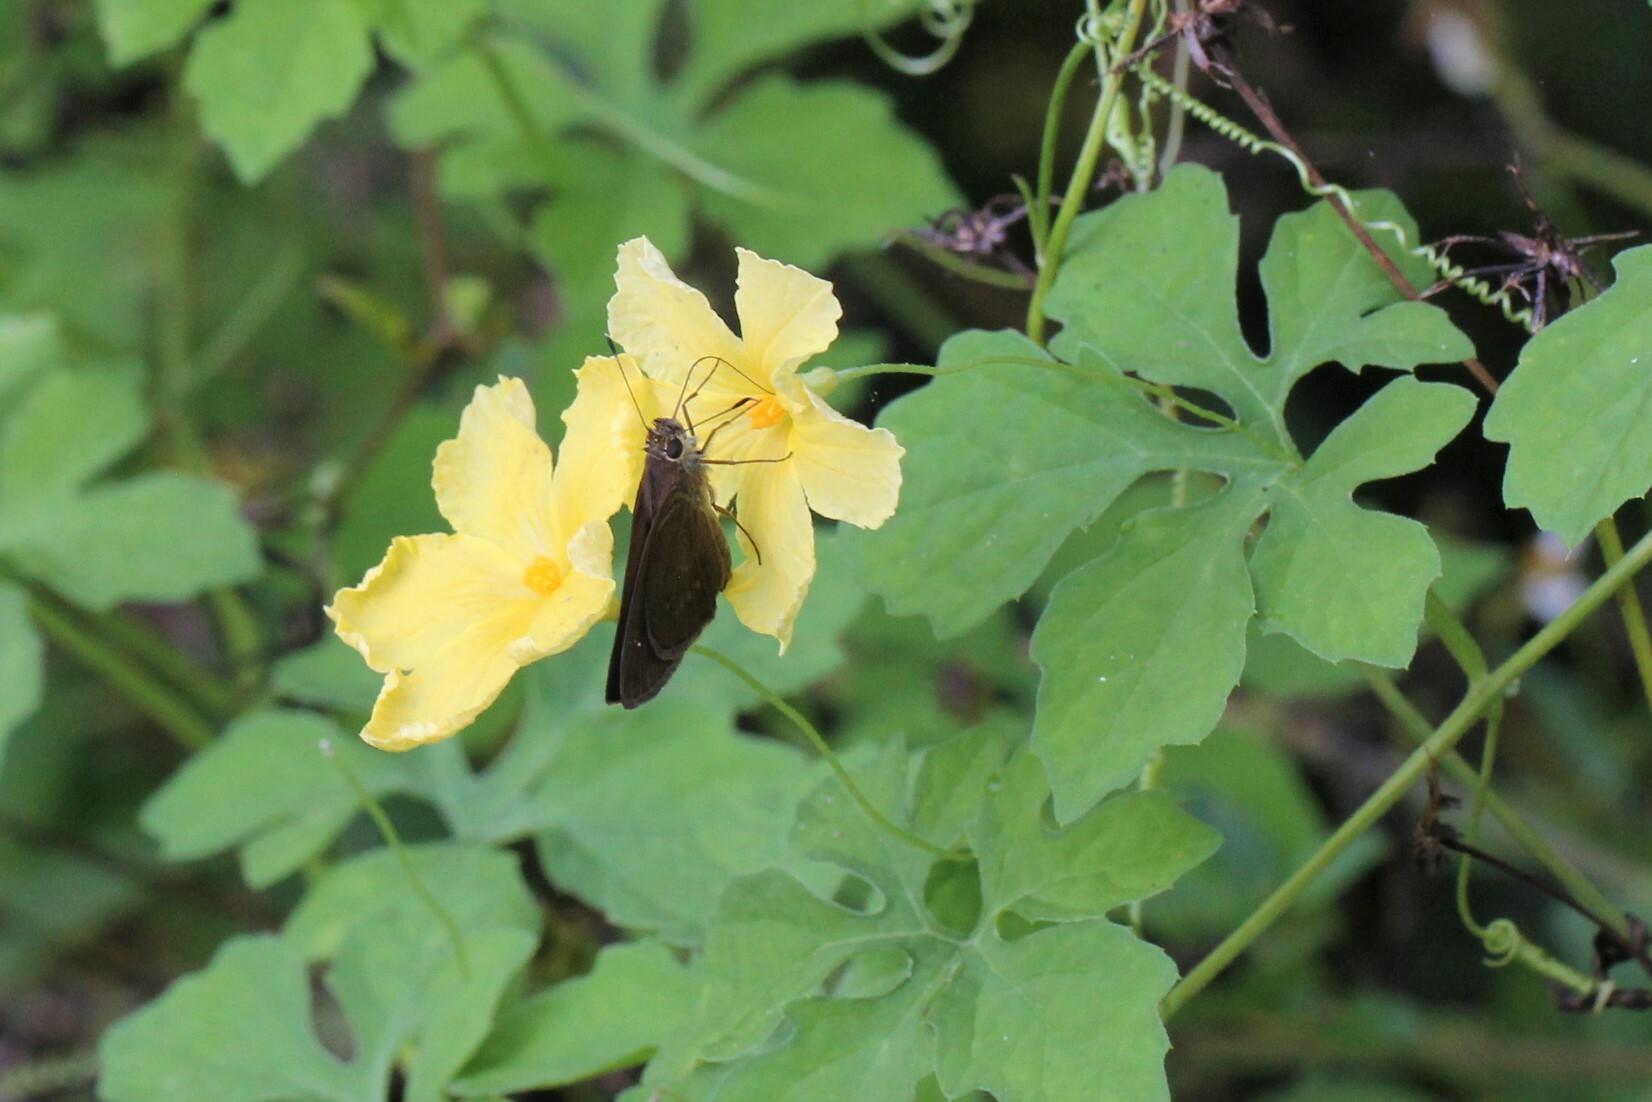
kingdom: Plantae
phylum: Tracheophyta
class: Magnoliopsida
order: Cucurbitales
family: Cucurbitaceae
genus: Momordica
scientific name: Momordica charantia
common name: Balsampear
